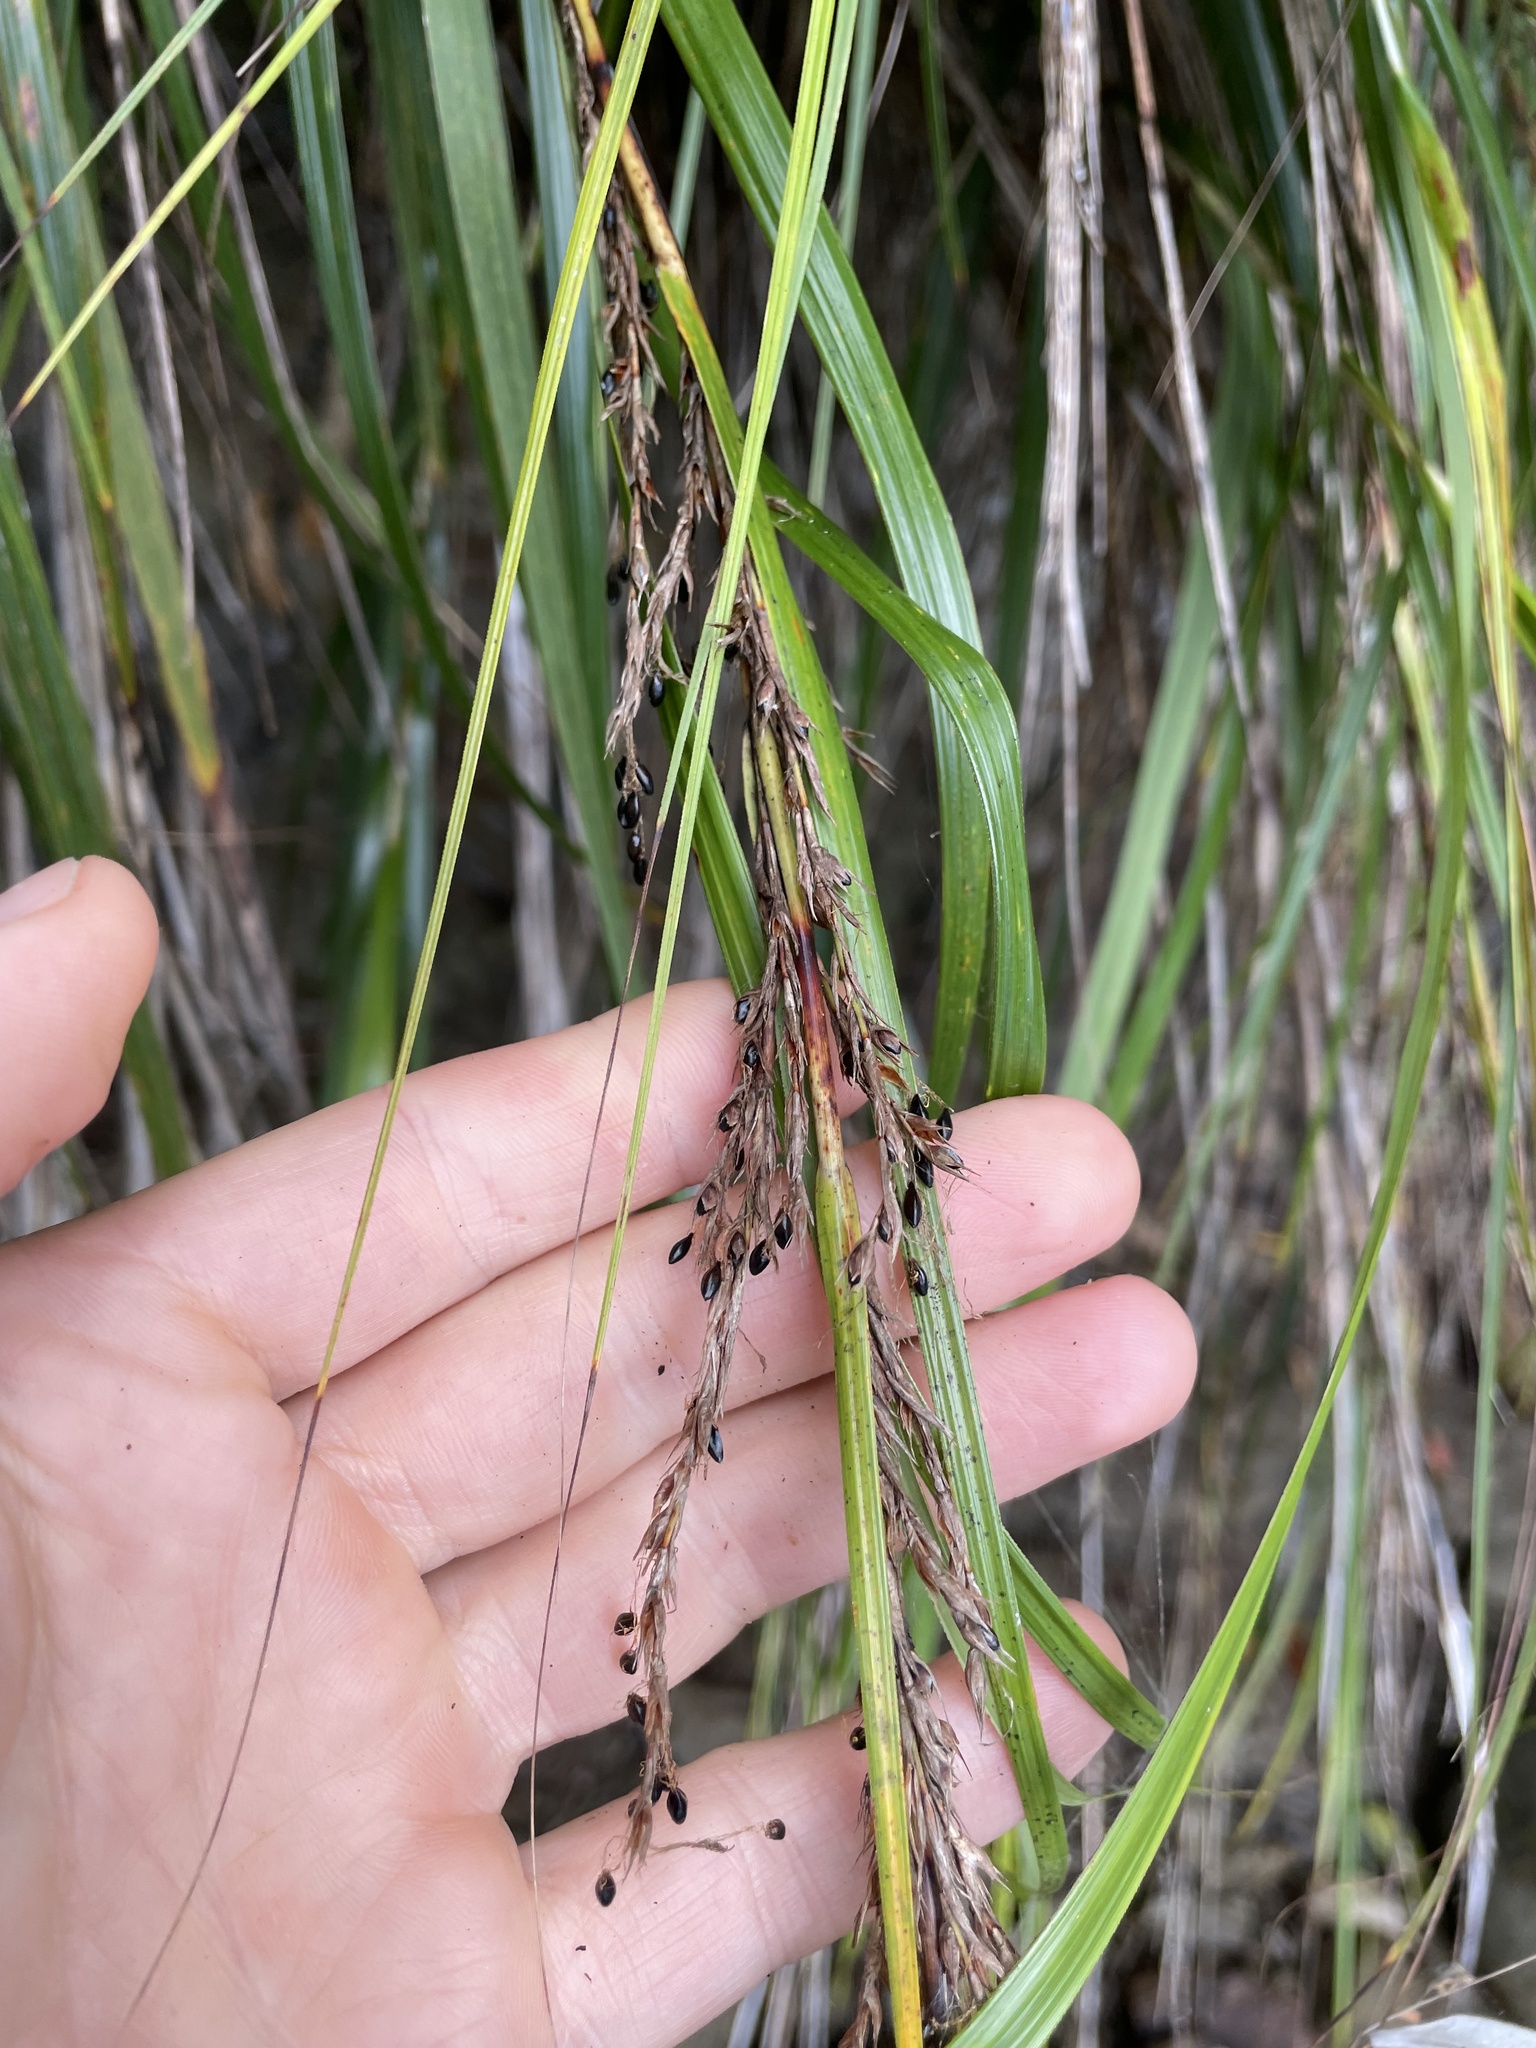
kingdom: Plantae
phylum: Tracheophyta
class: Liliopsida
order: Poales
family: Cyperaceae
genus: Gahnia
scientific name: Gahnia lacera
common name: Sawsedge
